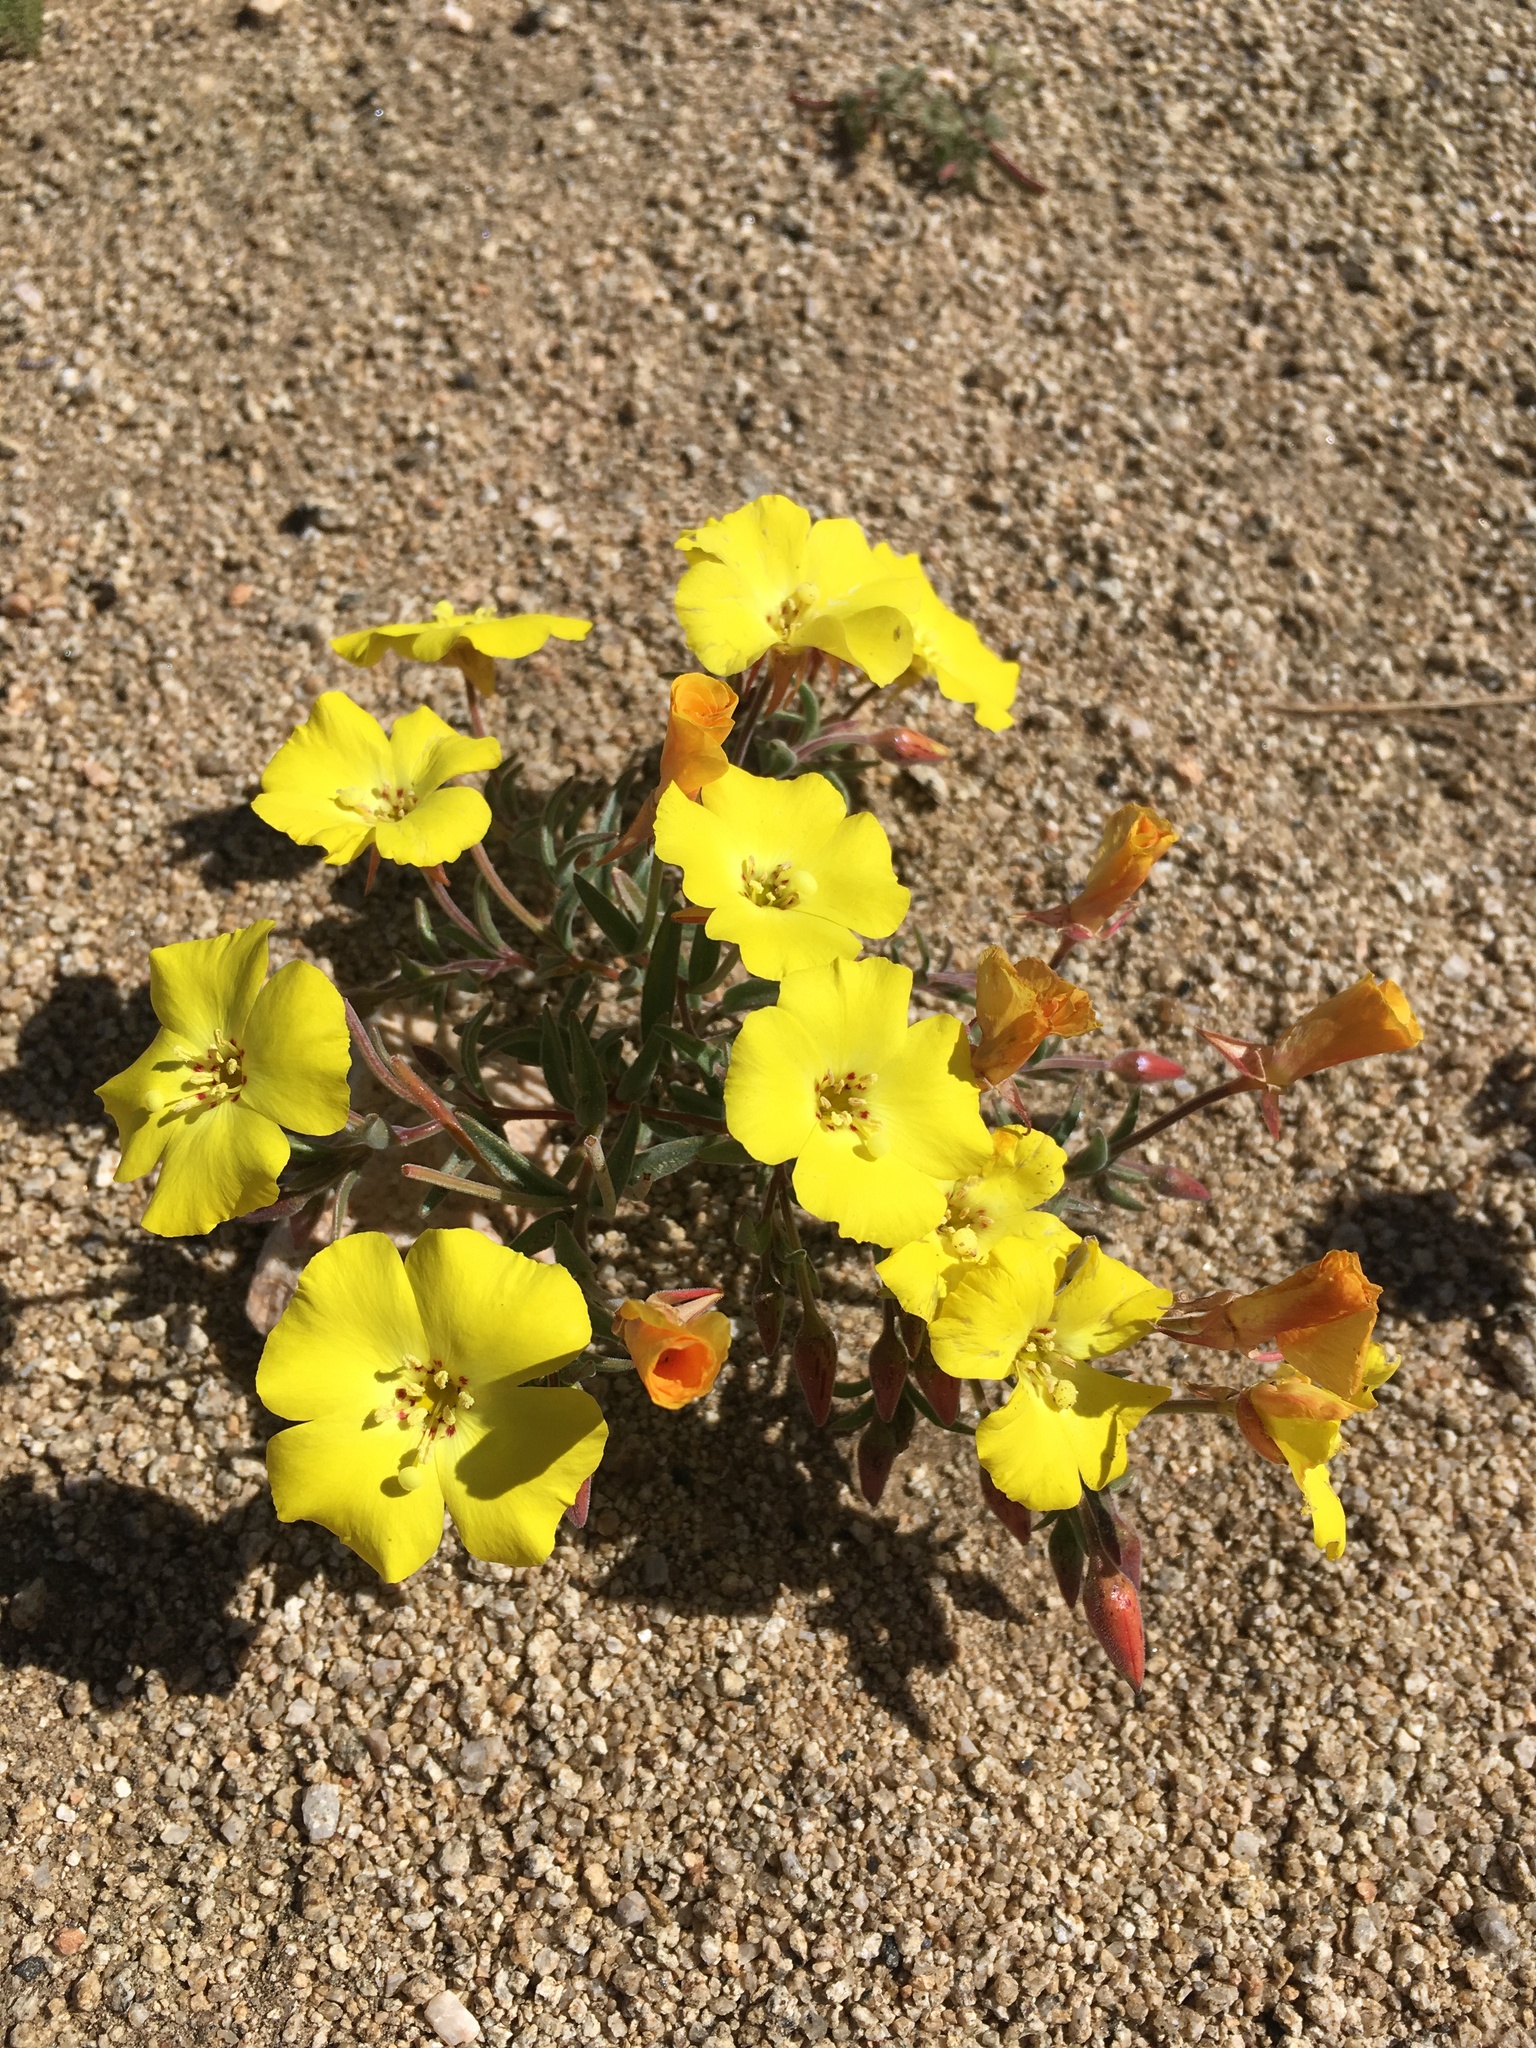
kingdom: Plantae
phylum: Tracheophyta
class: Magnoliopsida
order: Myrtales
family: Onagraceae
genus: Camissonia
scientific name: Camissonia kernensis
